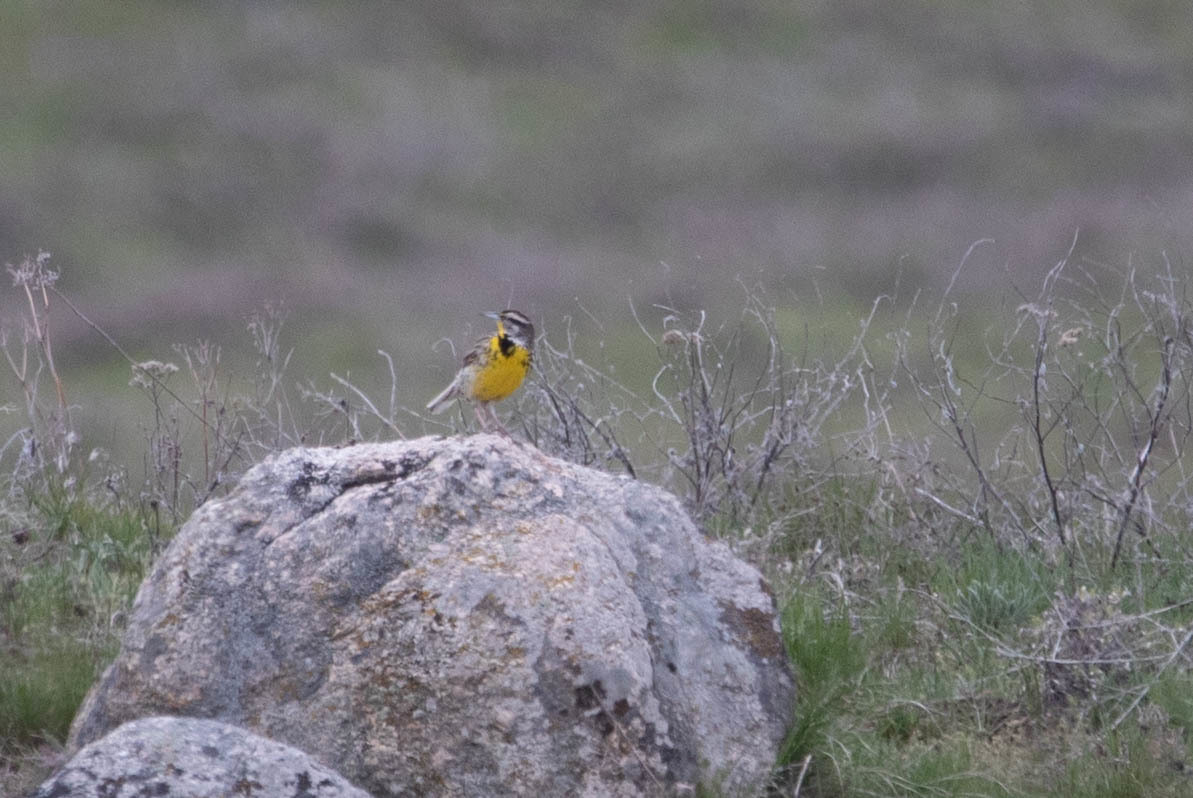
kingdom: Animalia
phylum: Chordata
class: Aves
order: Passeriformes
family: Icteridae
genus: Sturnella
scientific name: Sturnella neglecta
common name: Western meadowlark
